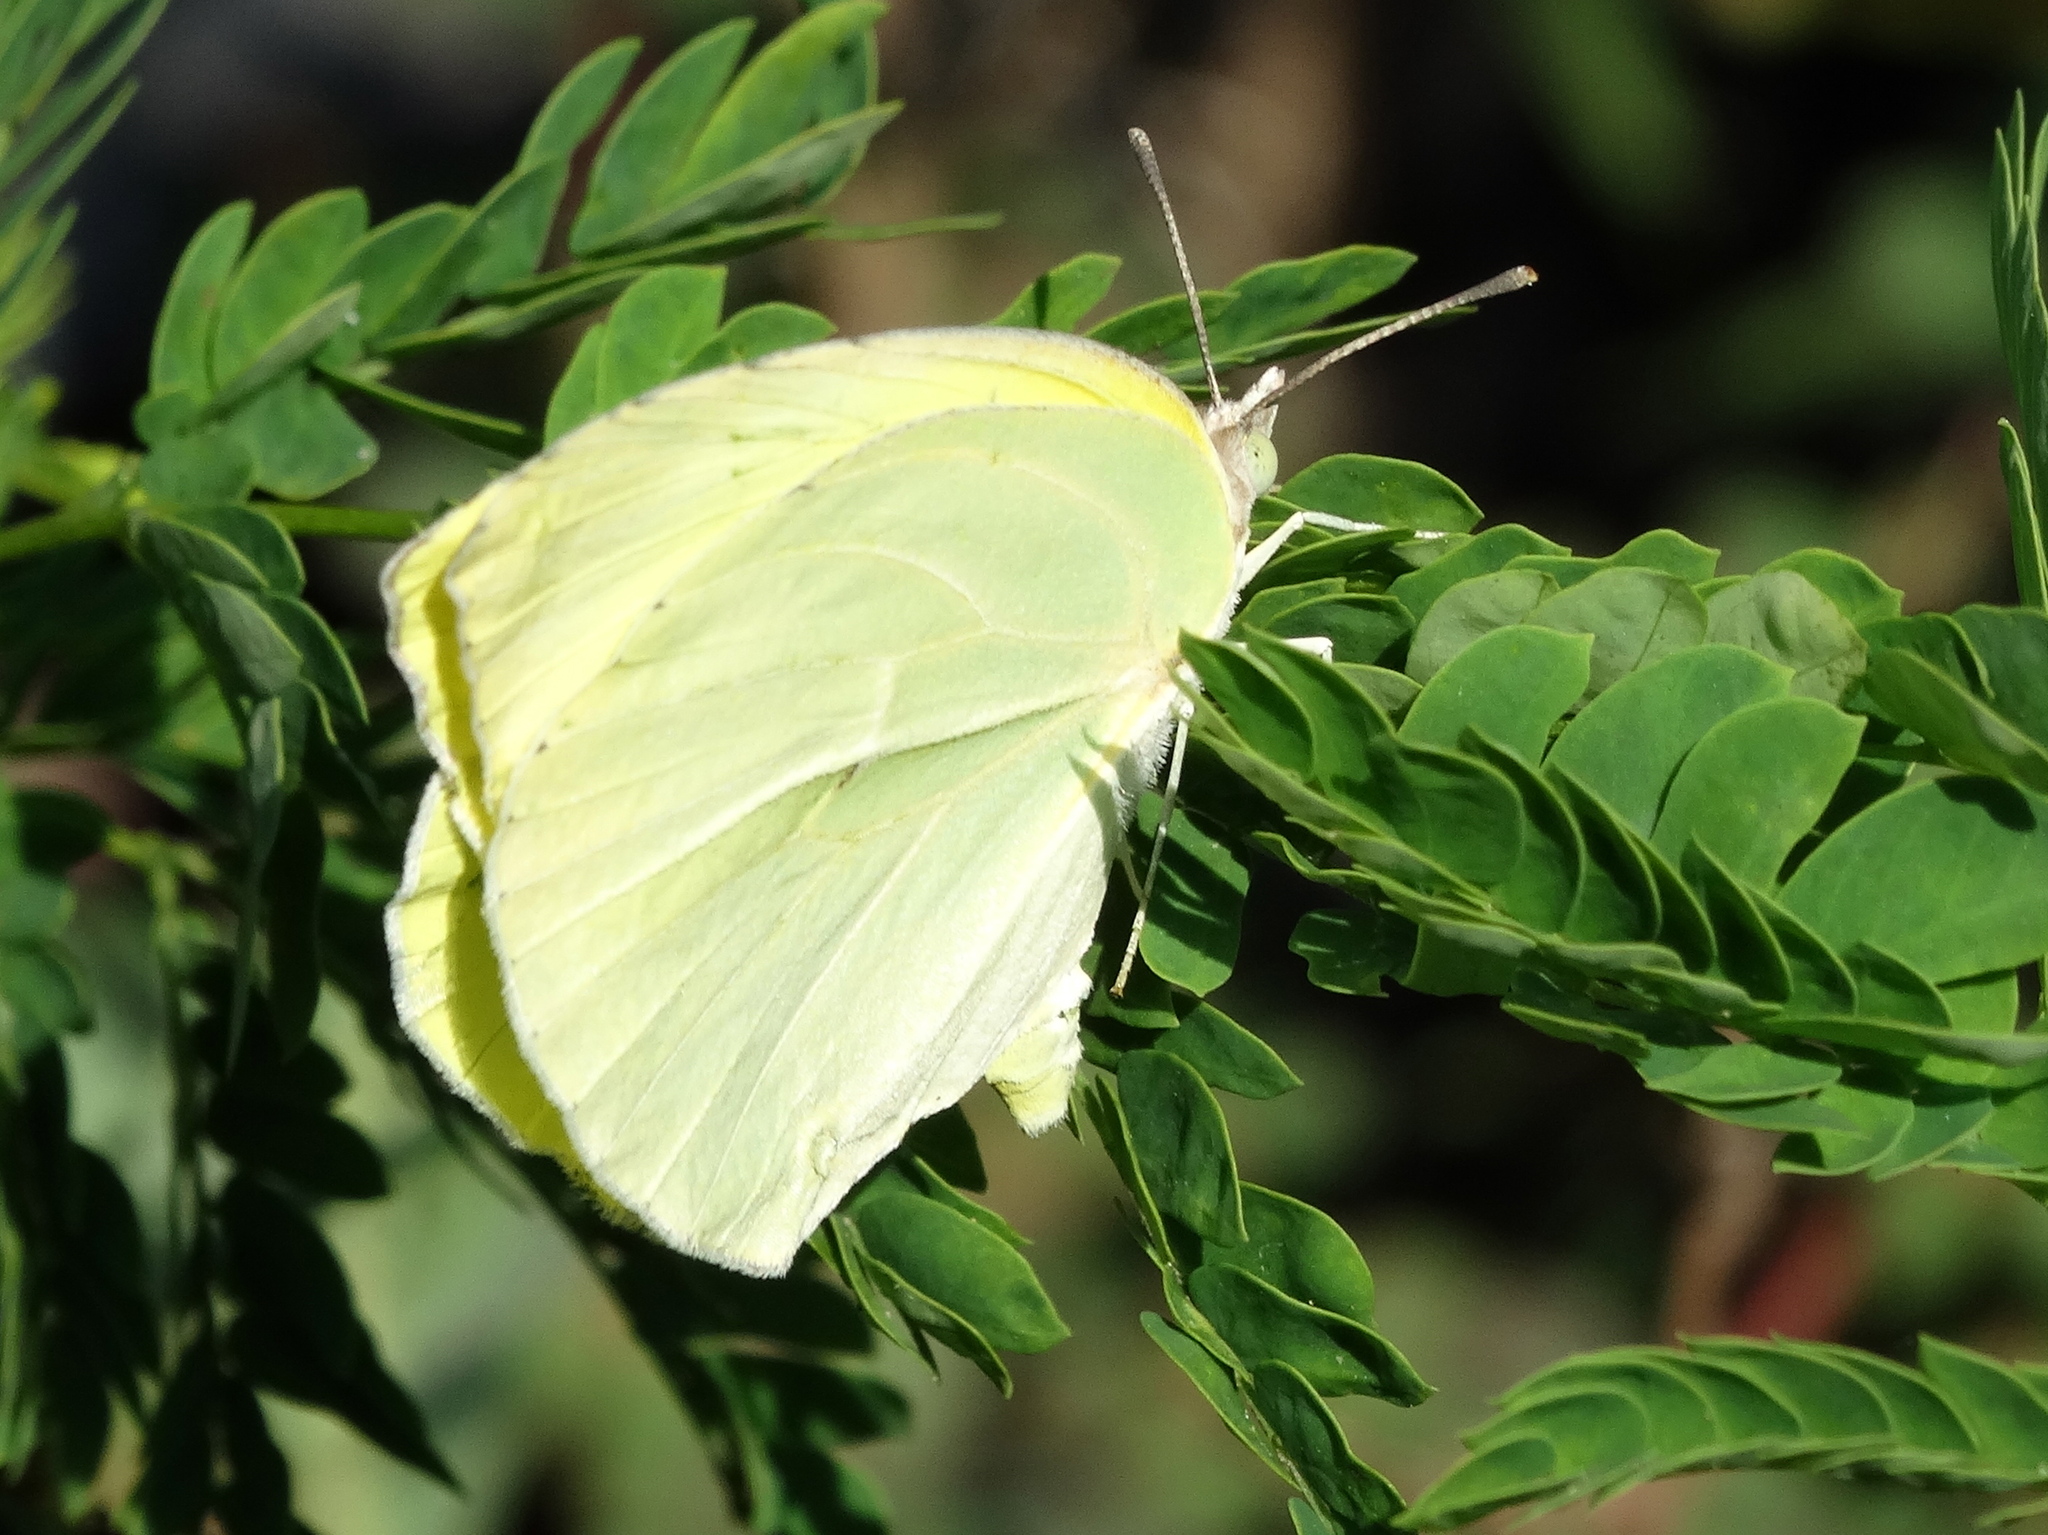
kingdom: Animalia
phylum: Arthropoda
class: Insecta
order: Lepidoptera
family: Pieridae
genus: Kricogonia
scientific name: Kricogonia lyside
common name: Guayacan sulphur,
